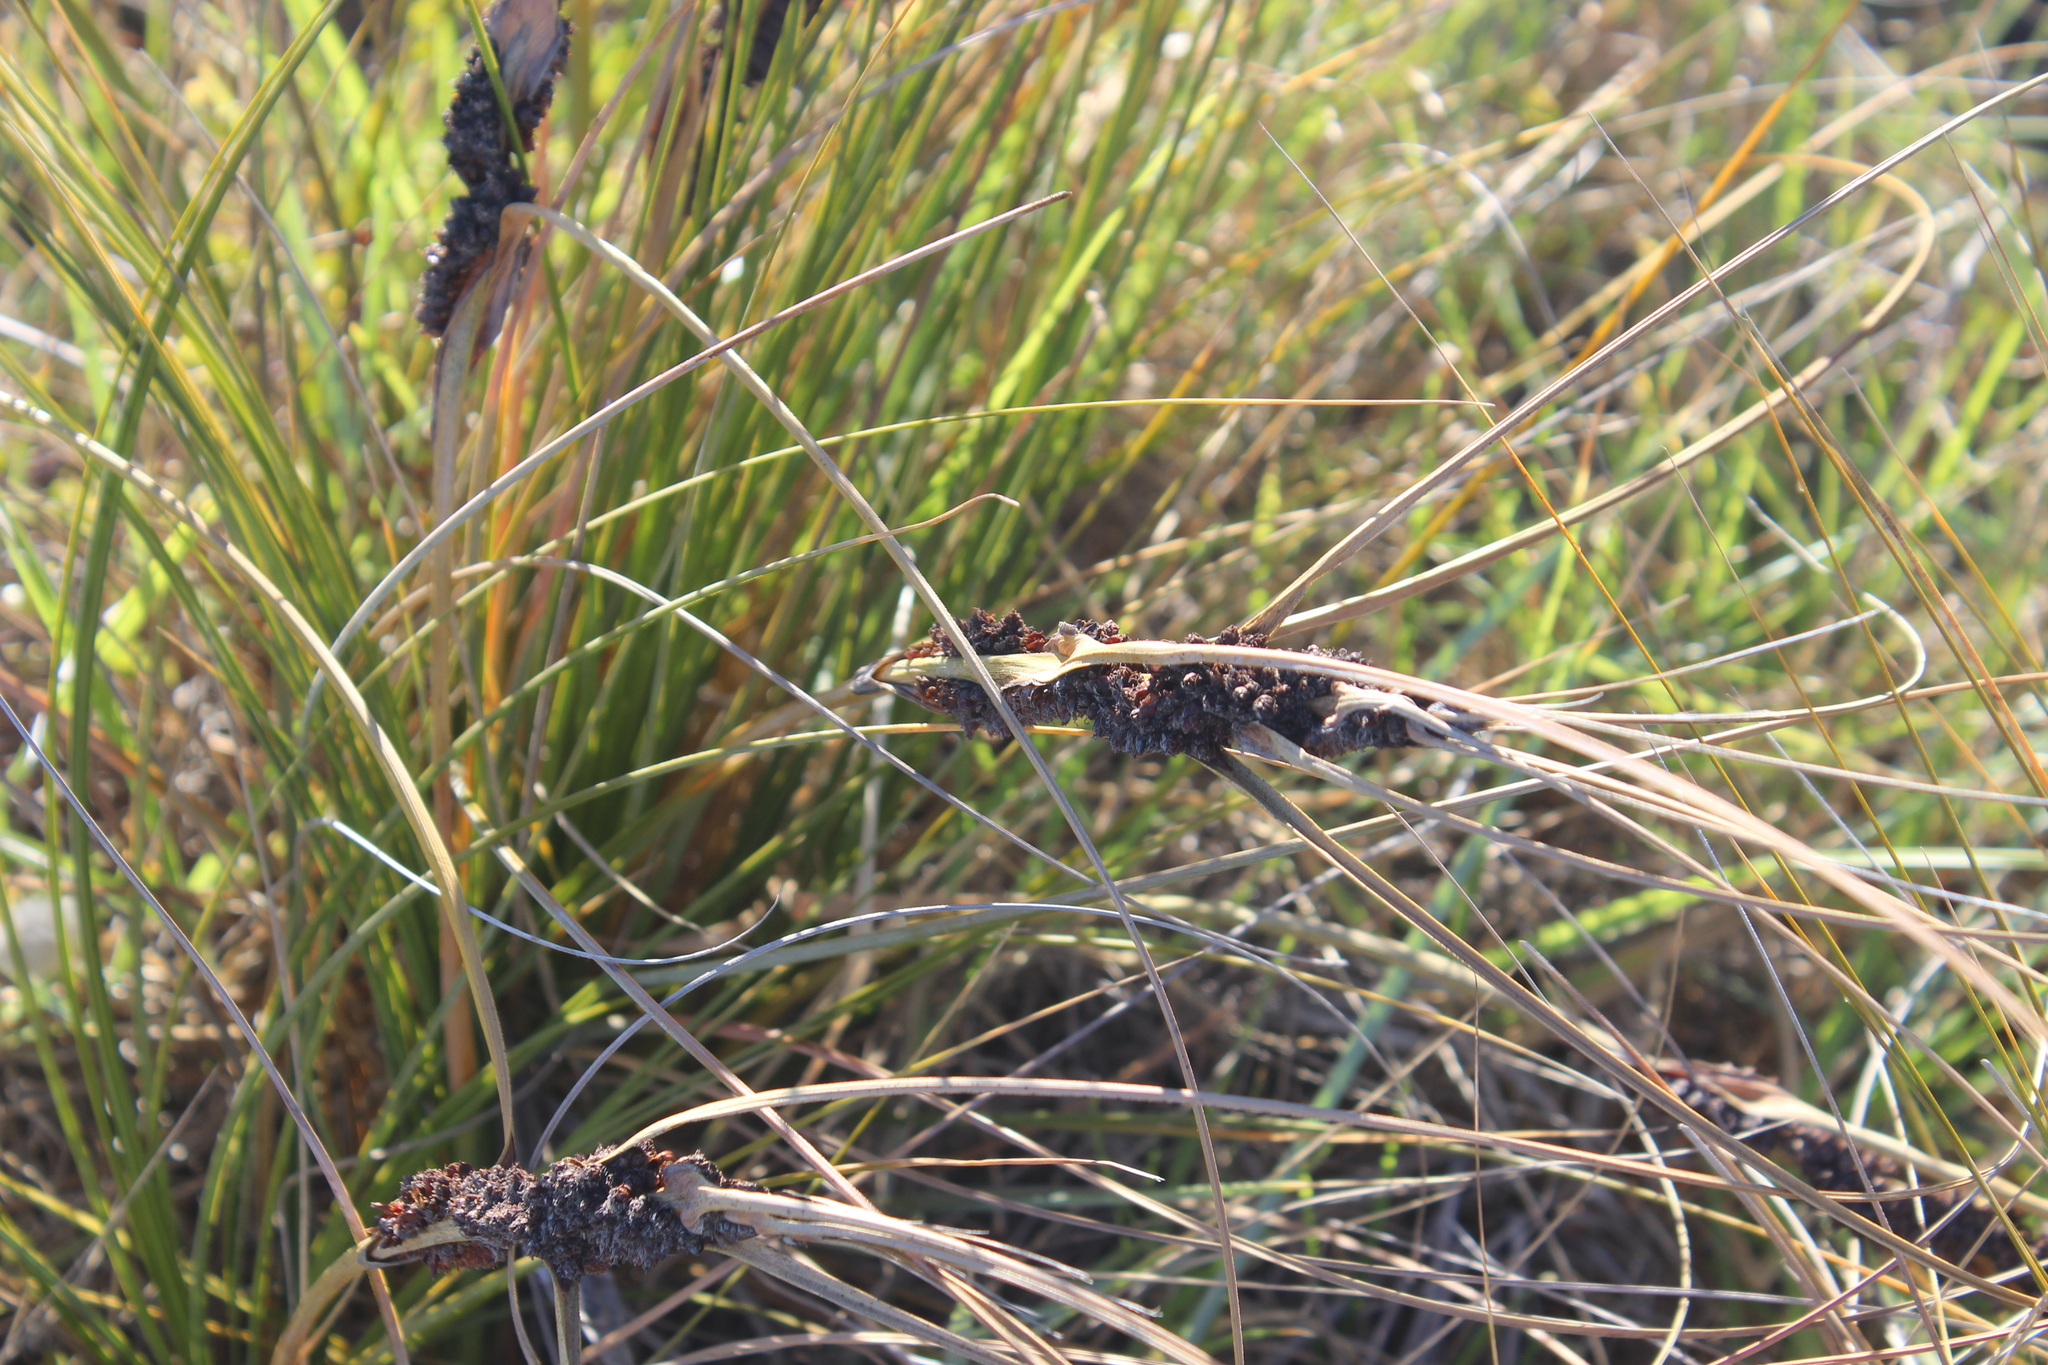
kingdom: Plantae
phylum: Tracheophyta
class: Liliopsida
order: Poales
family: Cyperaceae
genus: Ficinia
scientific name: Ficinia spiralis
